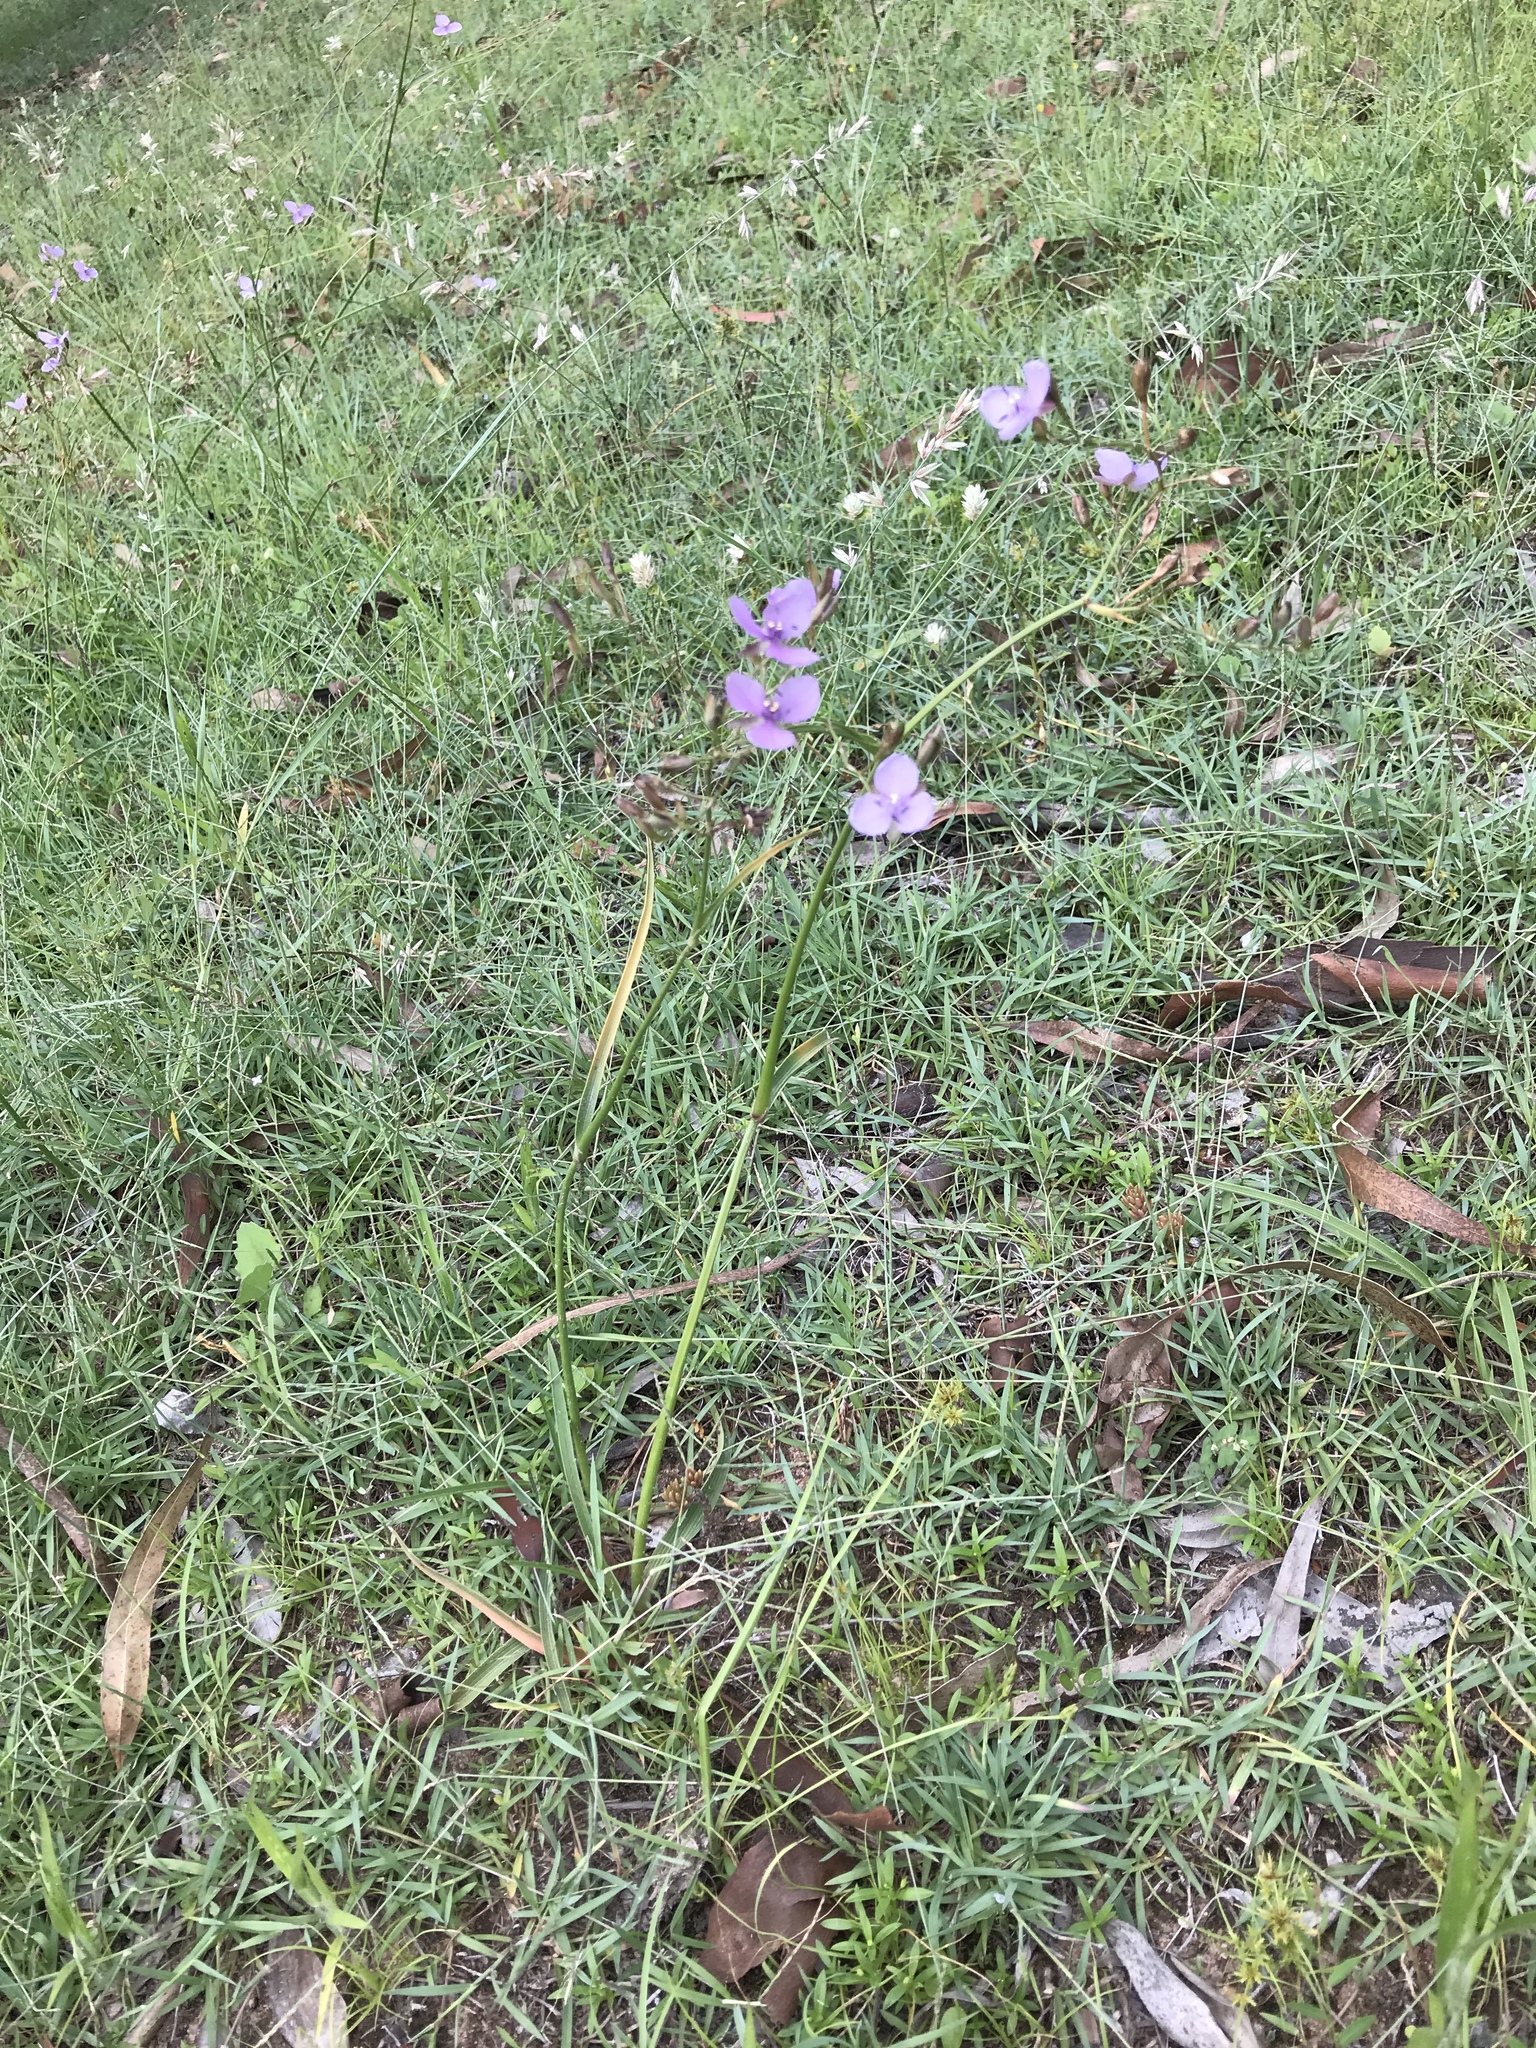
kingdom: Plantae
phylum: Tracheophyta
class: Liliopsida
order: Commelinales
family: Commelinaceae
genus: Murdannia
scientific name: Murdannia graminea
